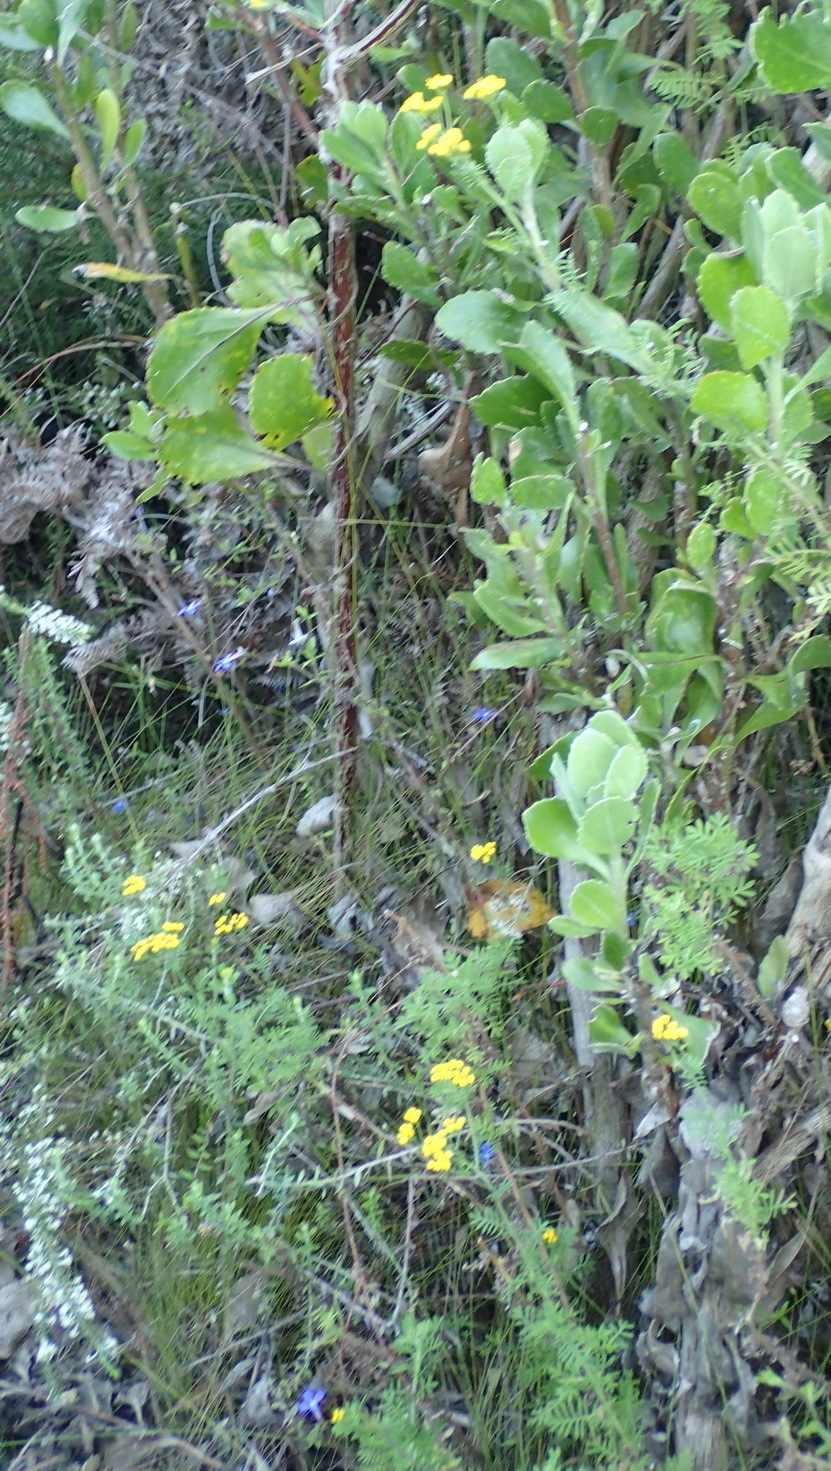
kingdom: Plantae
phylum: Tracheophyta
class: Magnoliopsida
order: Asterales
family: Asteraceae
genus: Hippia
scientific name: Hippia frutescens
